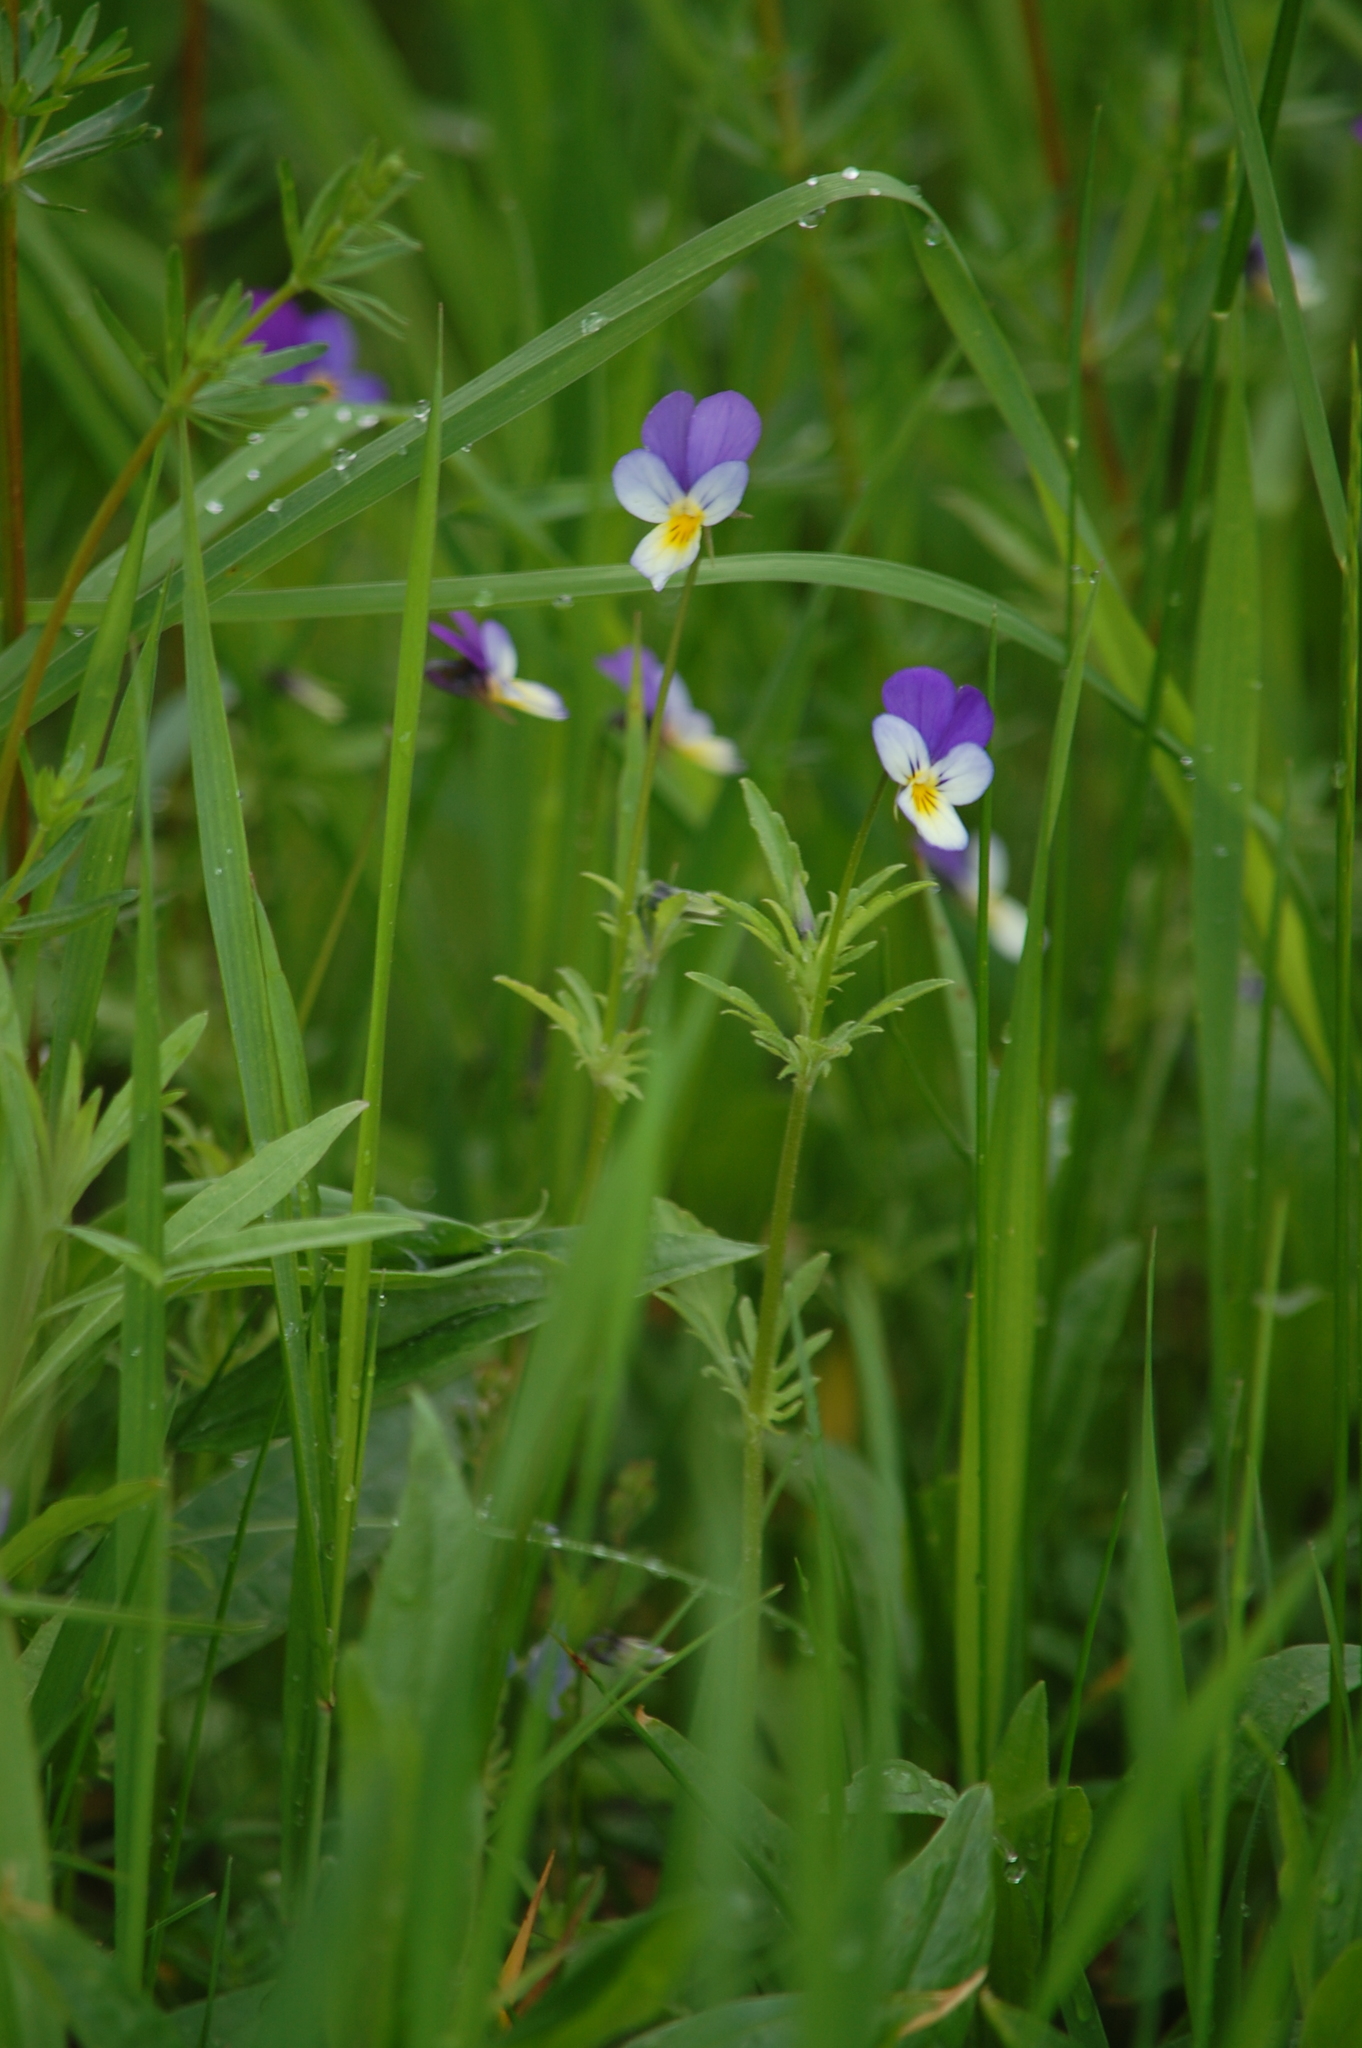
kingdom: Plantae
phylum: Tracheophyta
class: Magnoliopsida
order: Malpighiales
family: Violaceae
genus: Viola
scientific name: Viola tricolor
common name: Pansy
